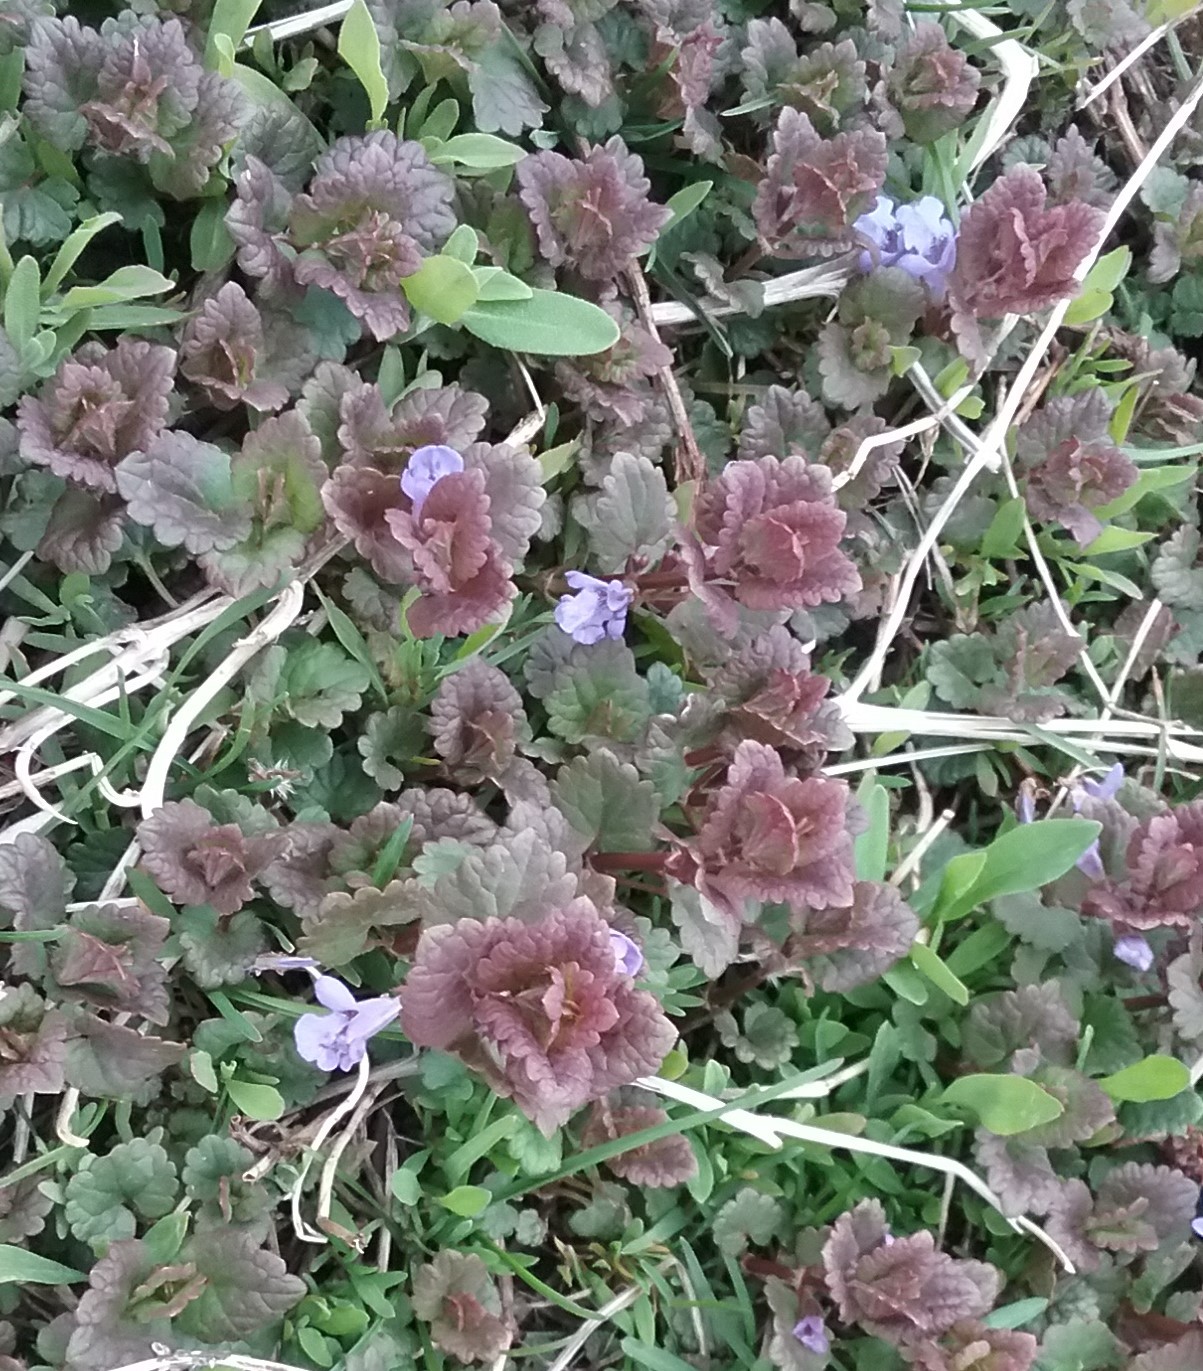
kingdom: Plantae
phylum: Tracheophyta
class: Magnoliopsida
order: Lamiales
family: Lamiaceae
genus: Glechoma
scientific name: Glechoma hederacea
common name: Ground ivy
